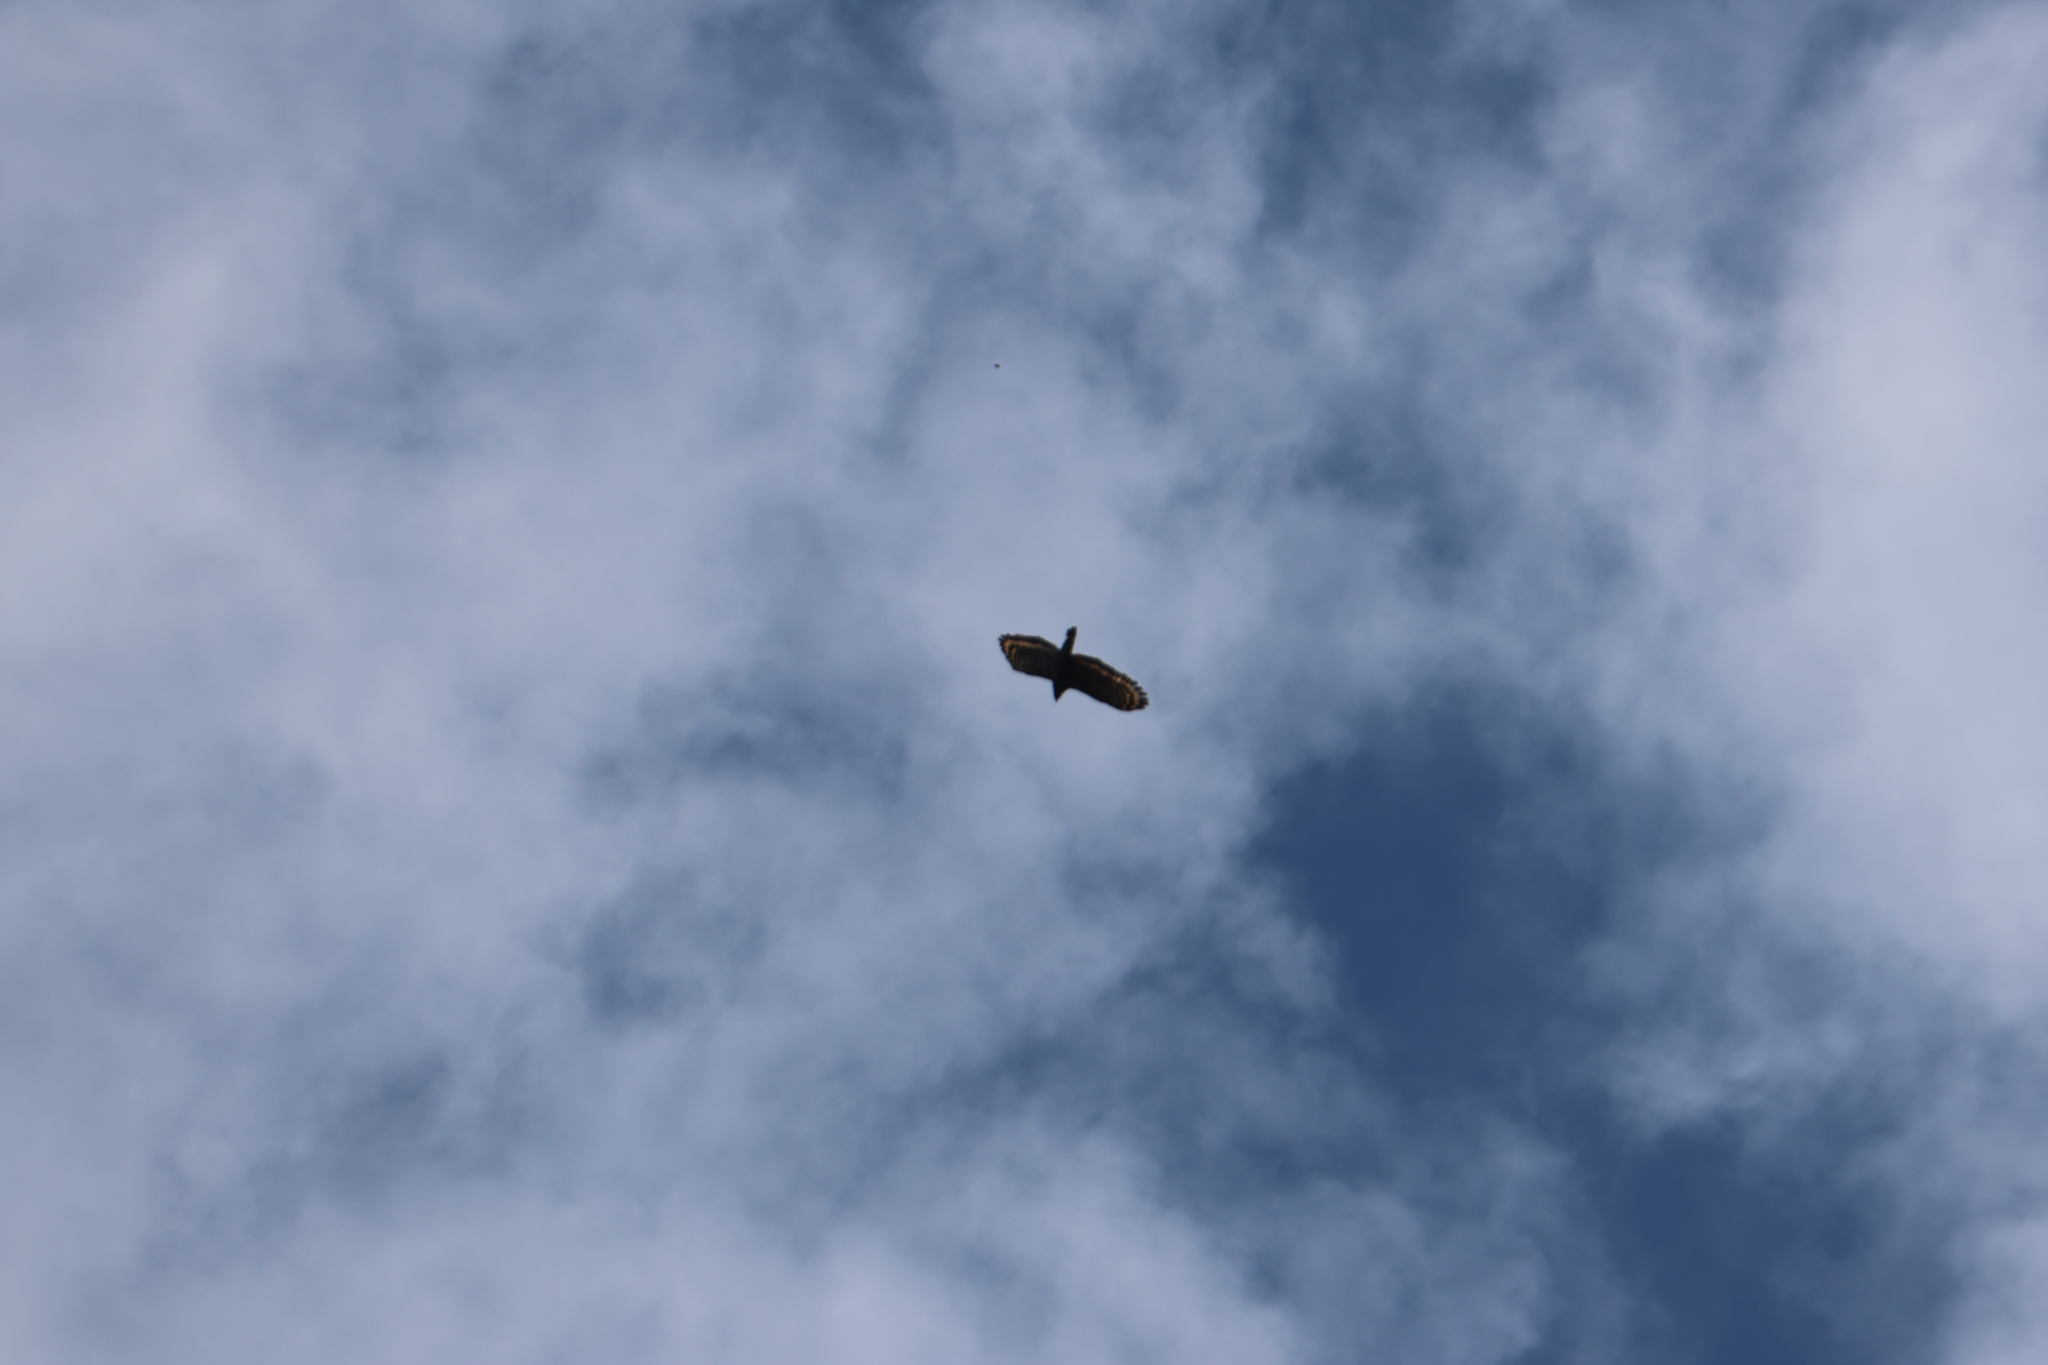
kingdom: Animalia
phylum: Chordata
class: Aves
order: Accipitriformes
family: Accipitridae
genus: Spilornis
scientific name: Spilornis cheela
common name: Crested serpent eagle
